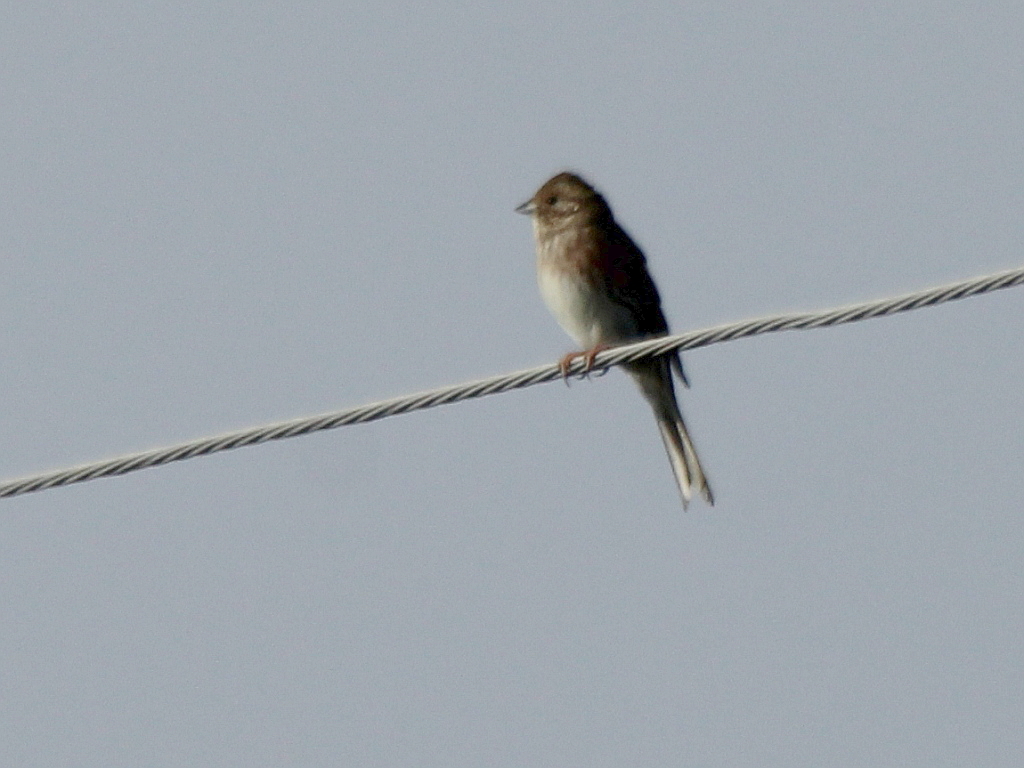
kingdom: Animalia
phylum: Chordata
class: Aves
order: Passeriformes
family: Emberizidae
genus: Emberiza
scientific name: Emberiza leucocephalos
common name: Pine bunting
